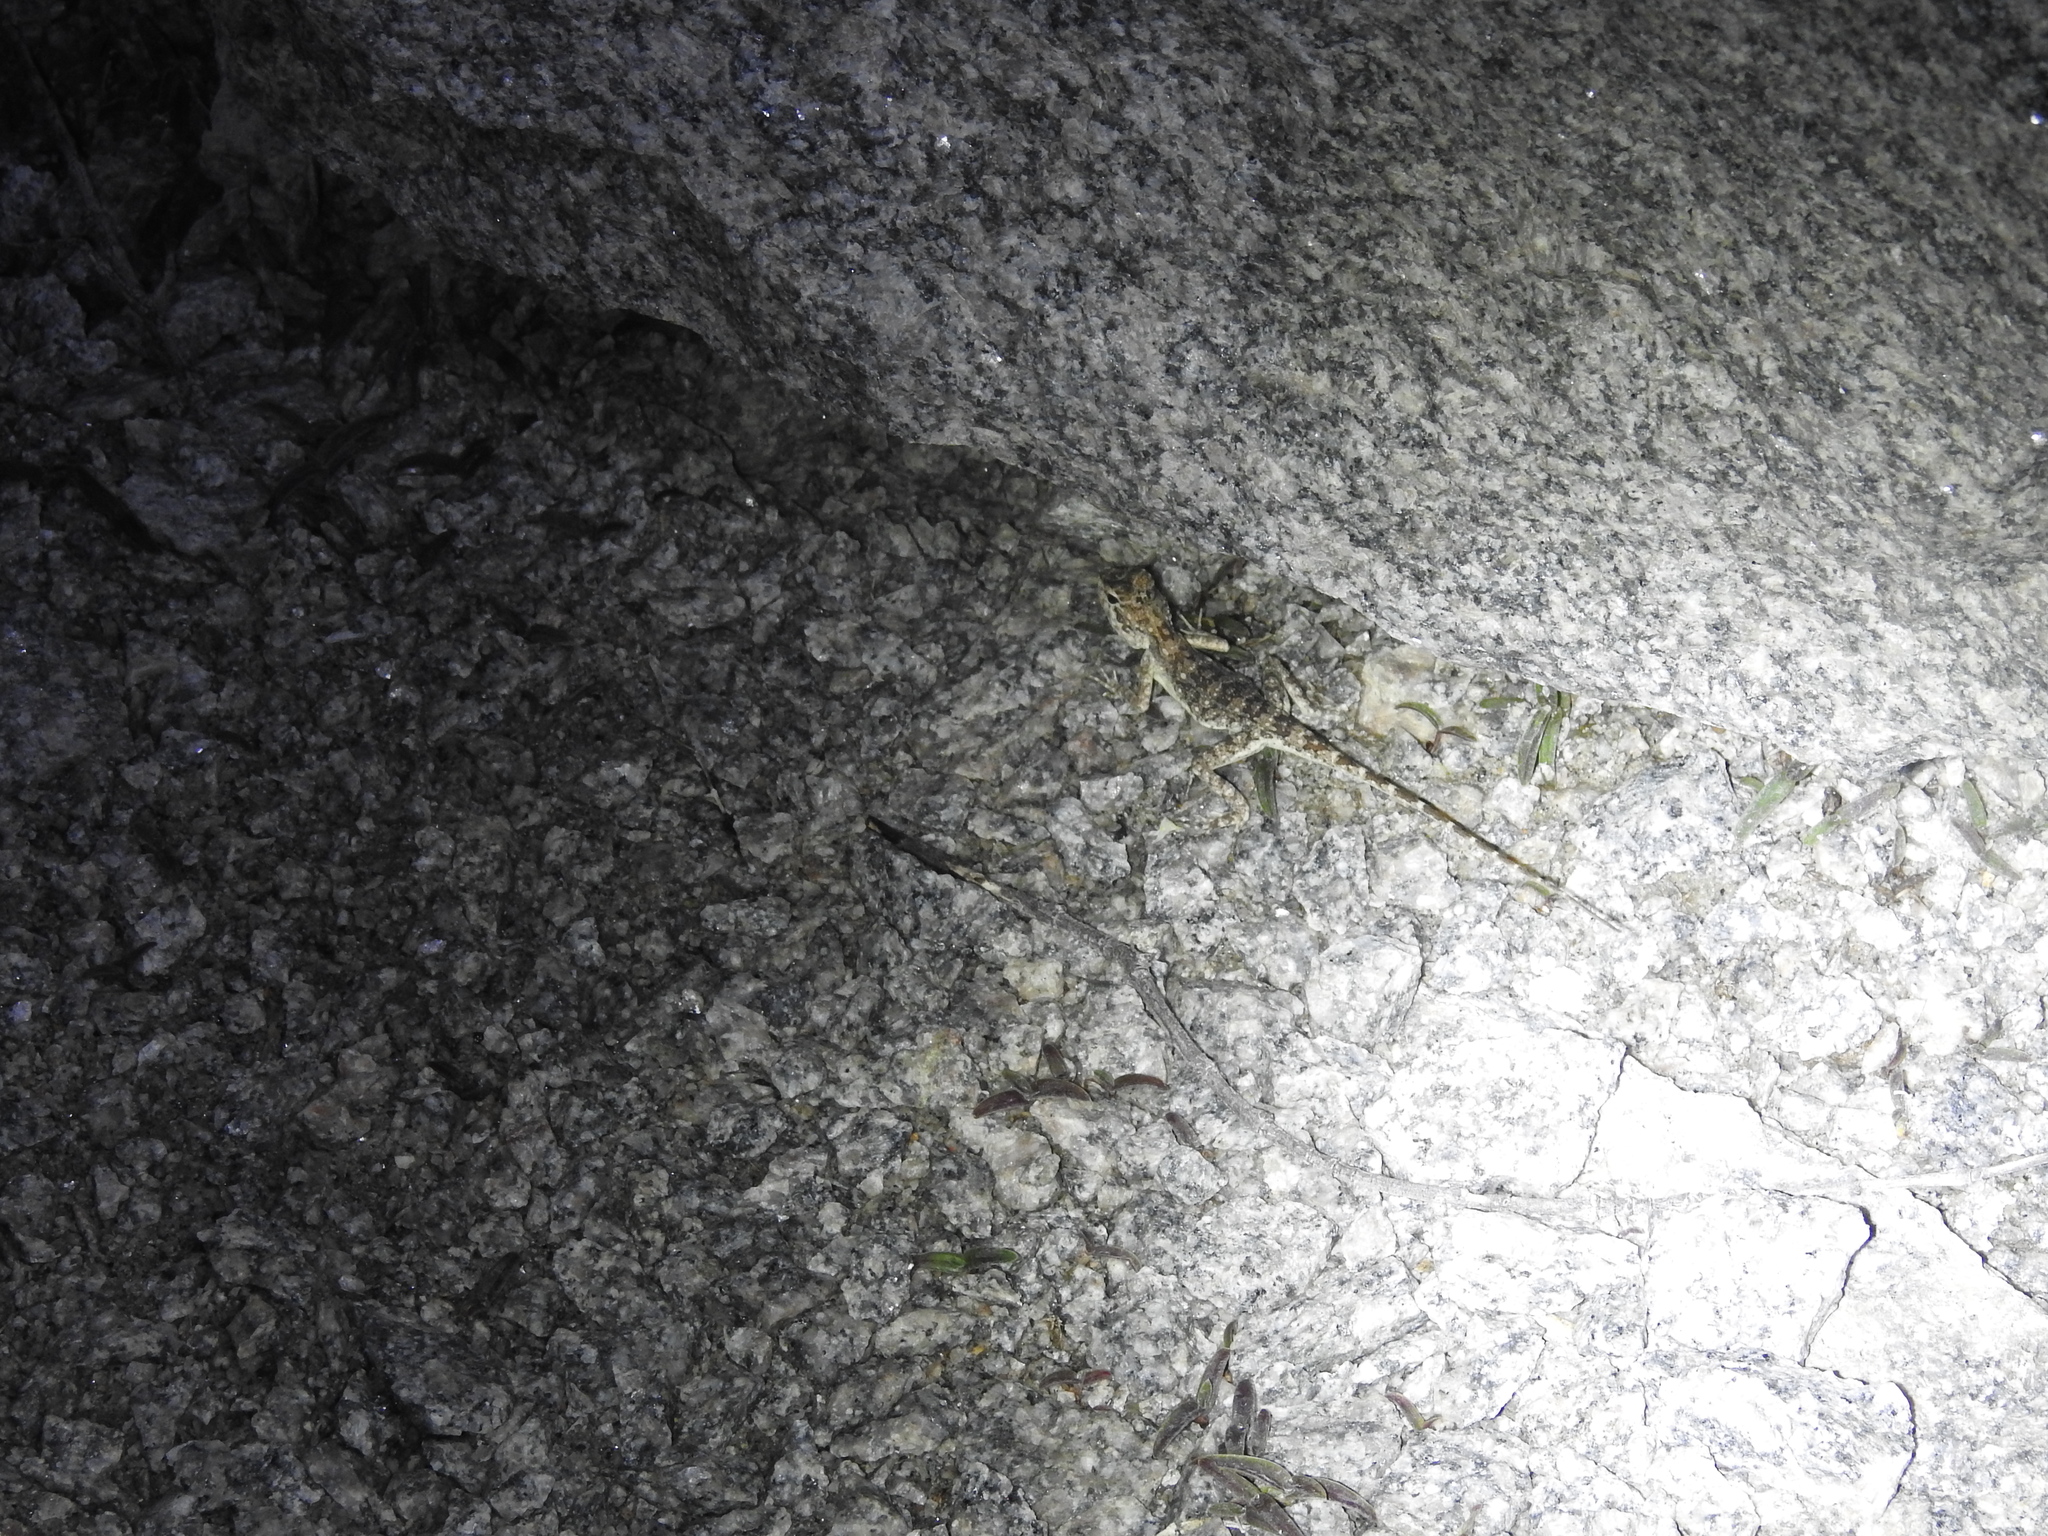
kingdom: Animalia
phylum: Chordata
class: Squamata
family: Agamidae
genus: Psammophilus
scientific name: Psammophilus dorsalis
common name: South indian rock agama
